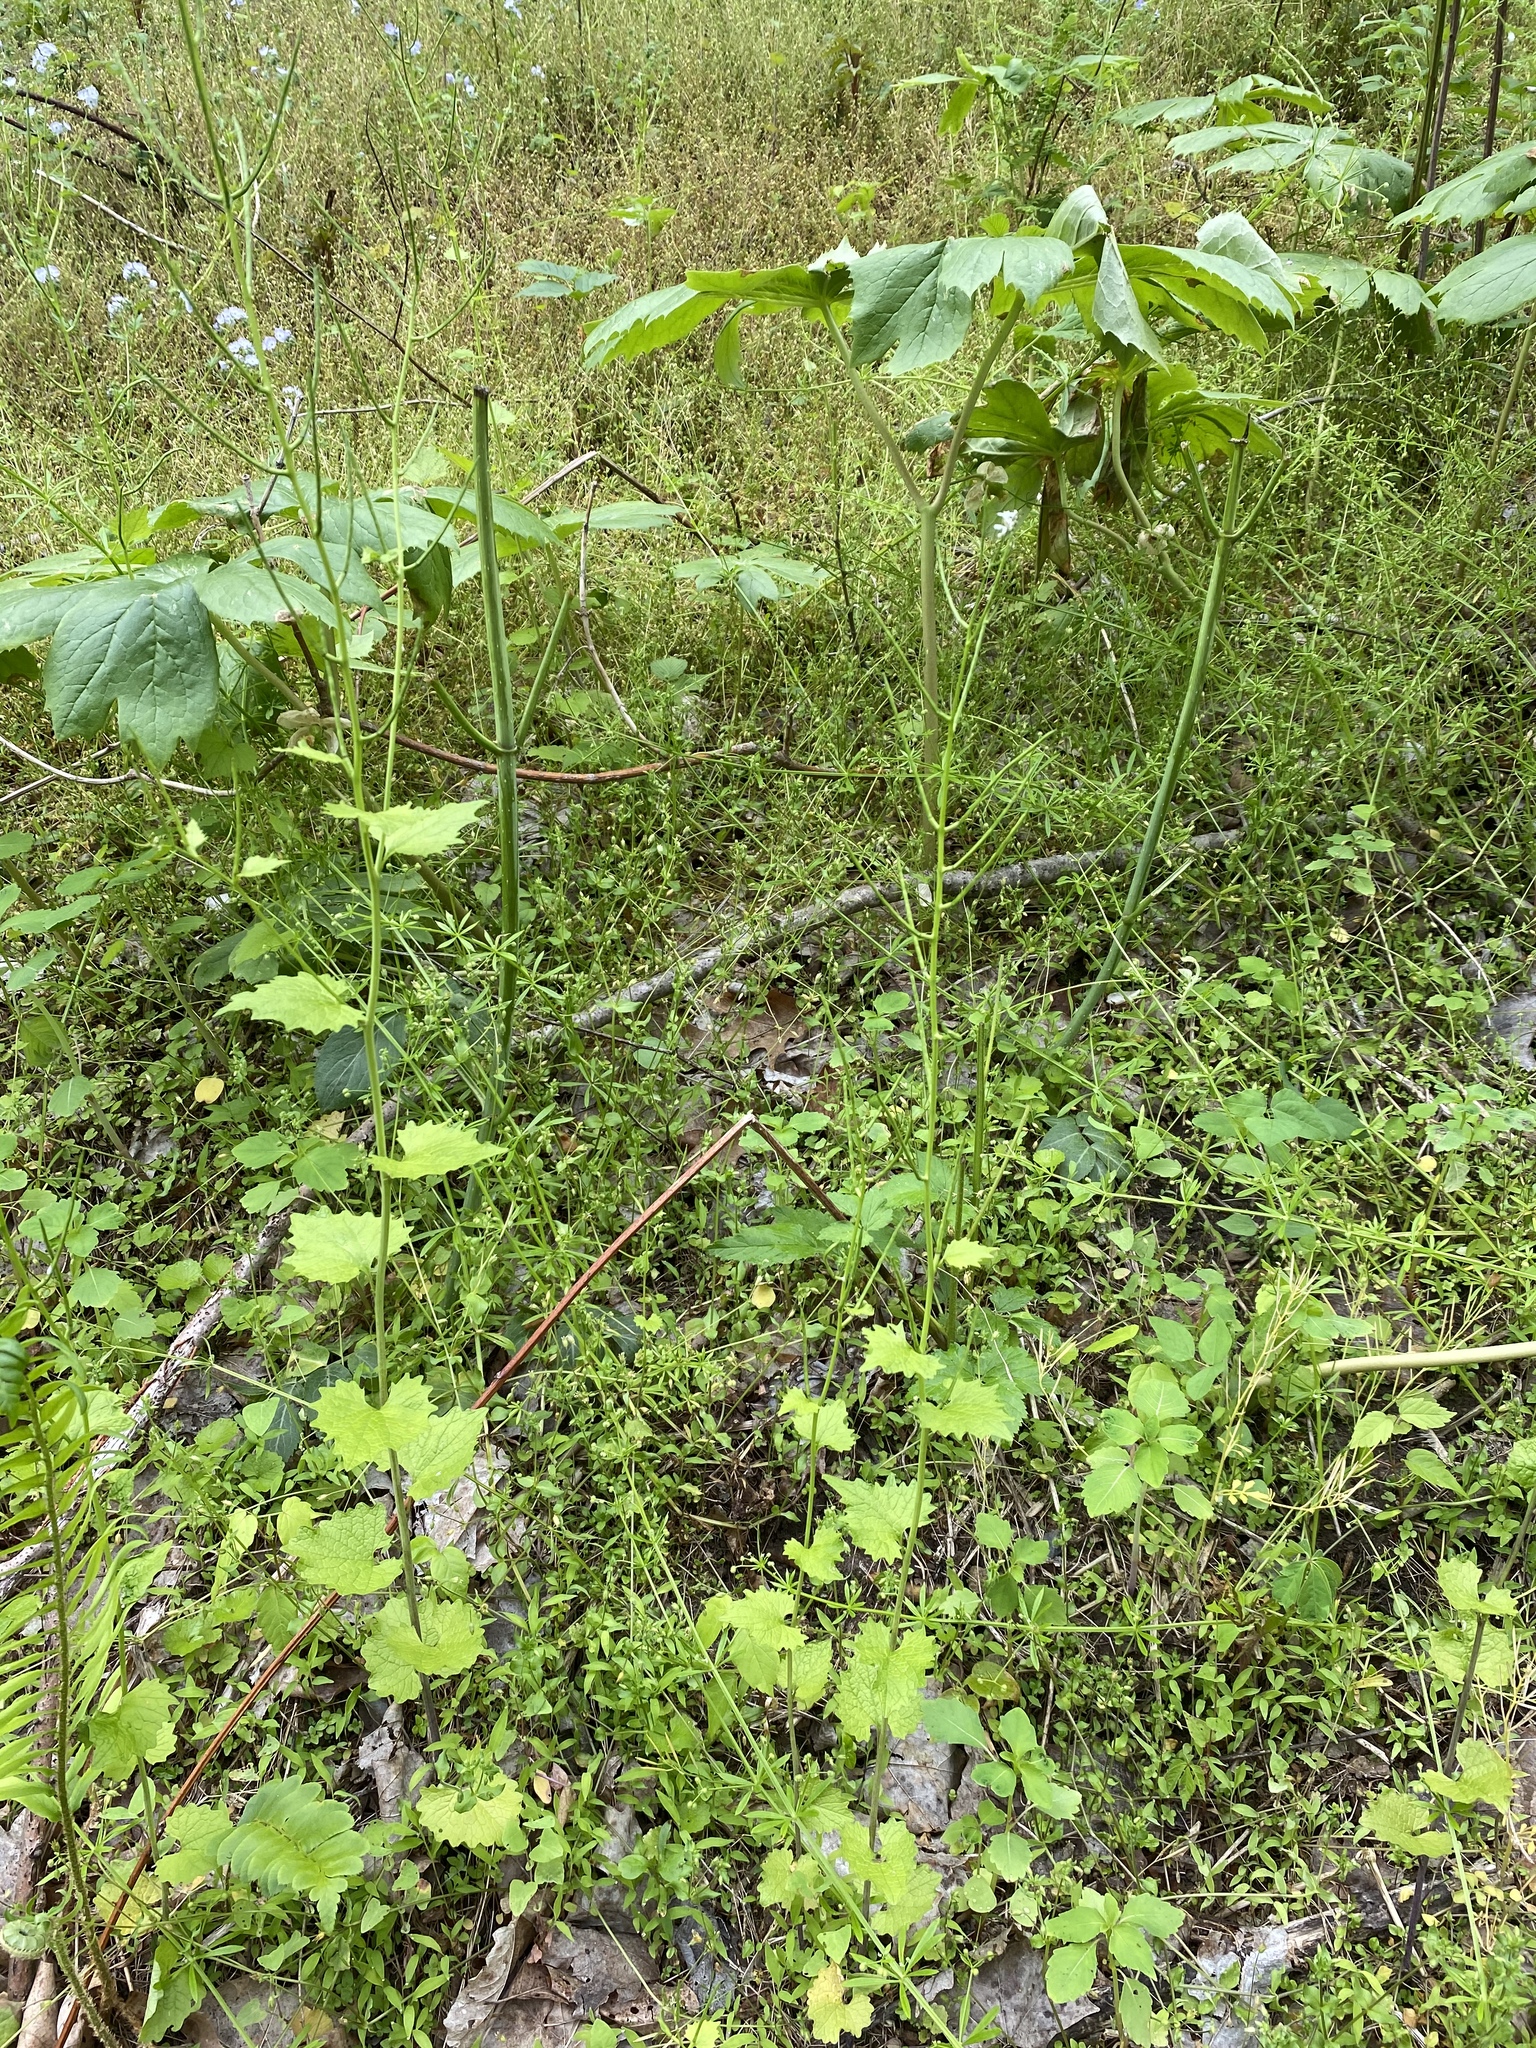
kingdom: Plantae
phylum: Tracheophyta
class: Magnoliopsida
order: Brassicales
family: Brassicaceae
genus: Alliaria
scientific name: Alliaria petiolata
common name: Garlic mustard
